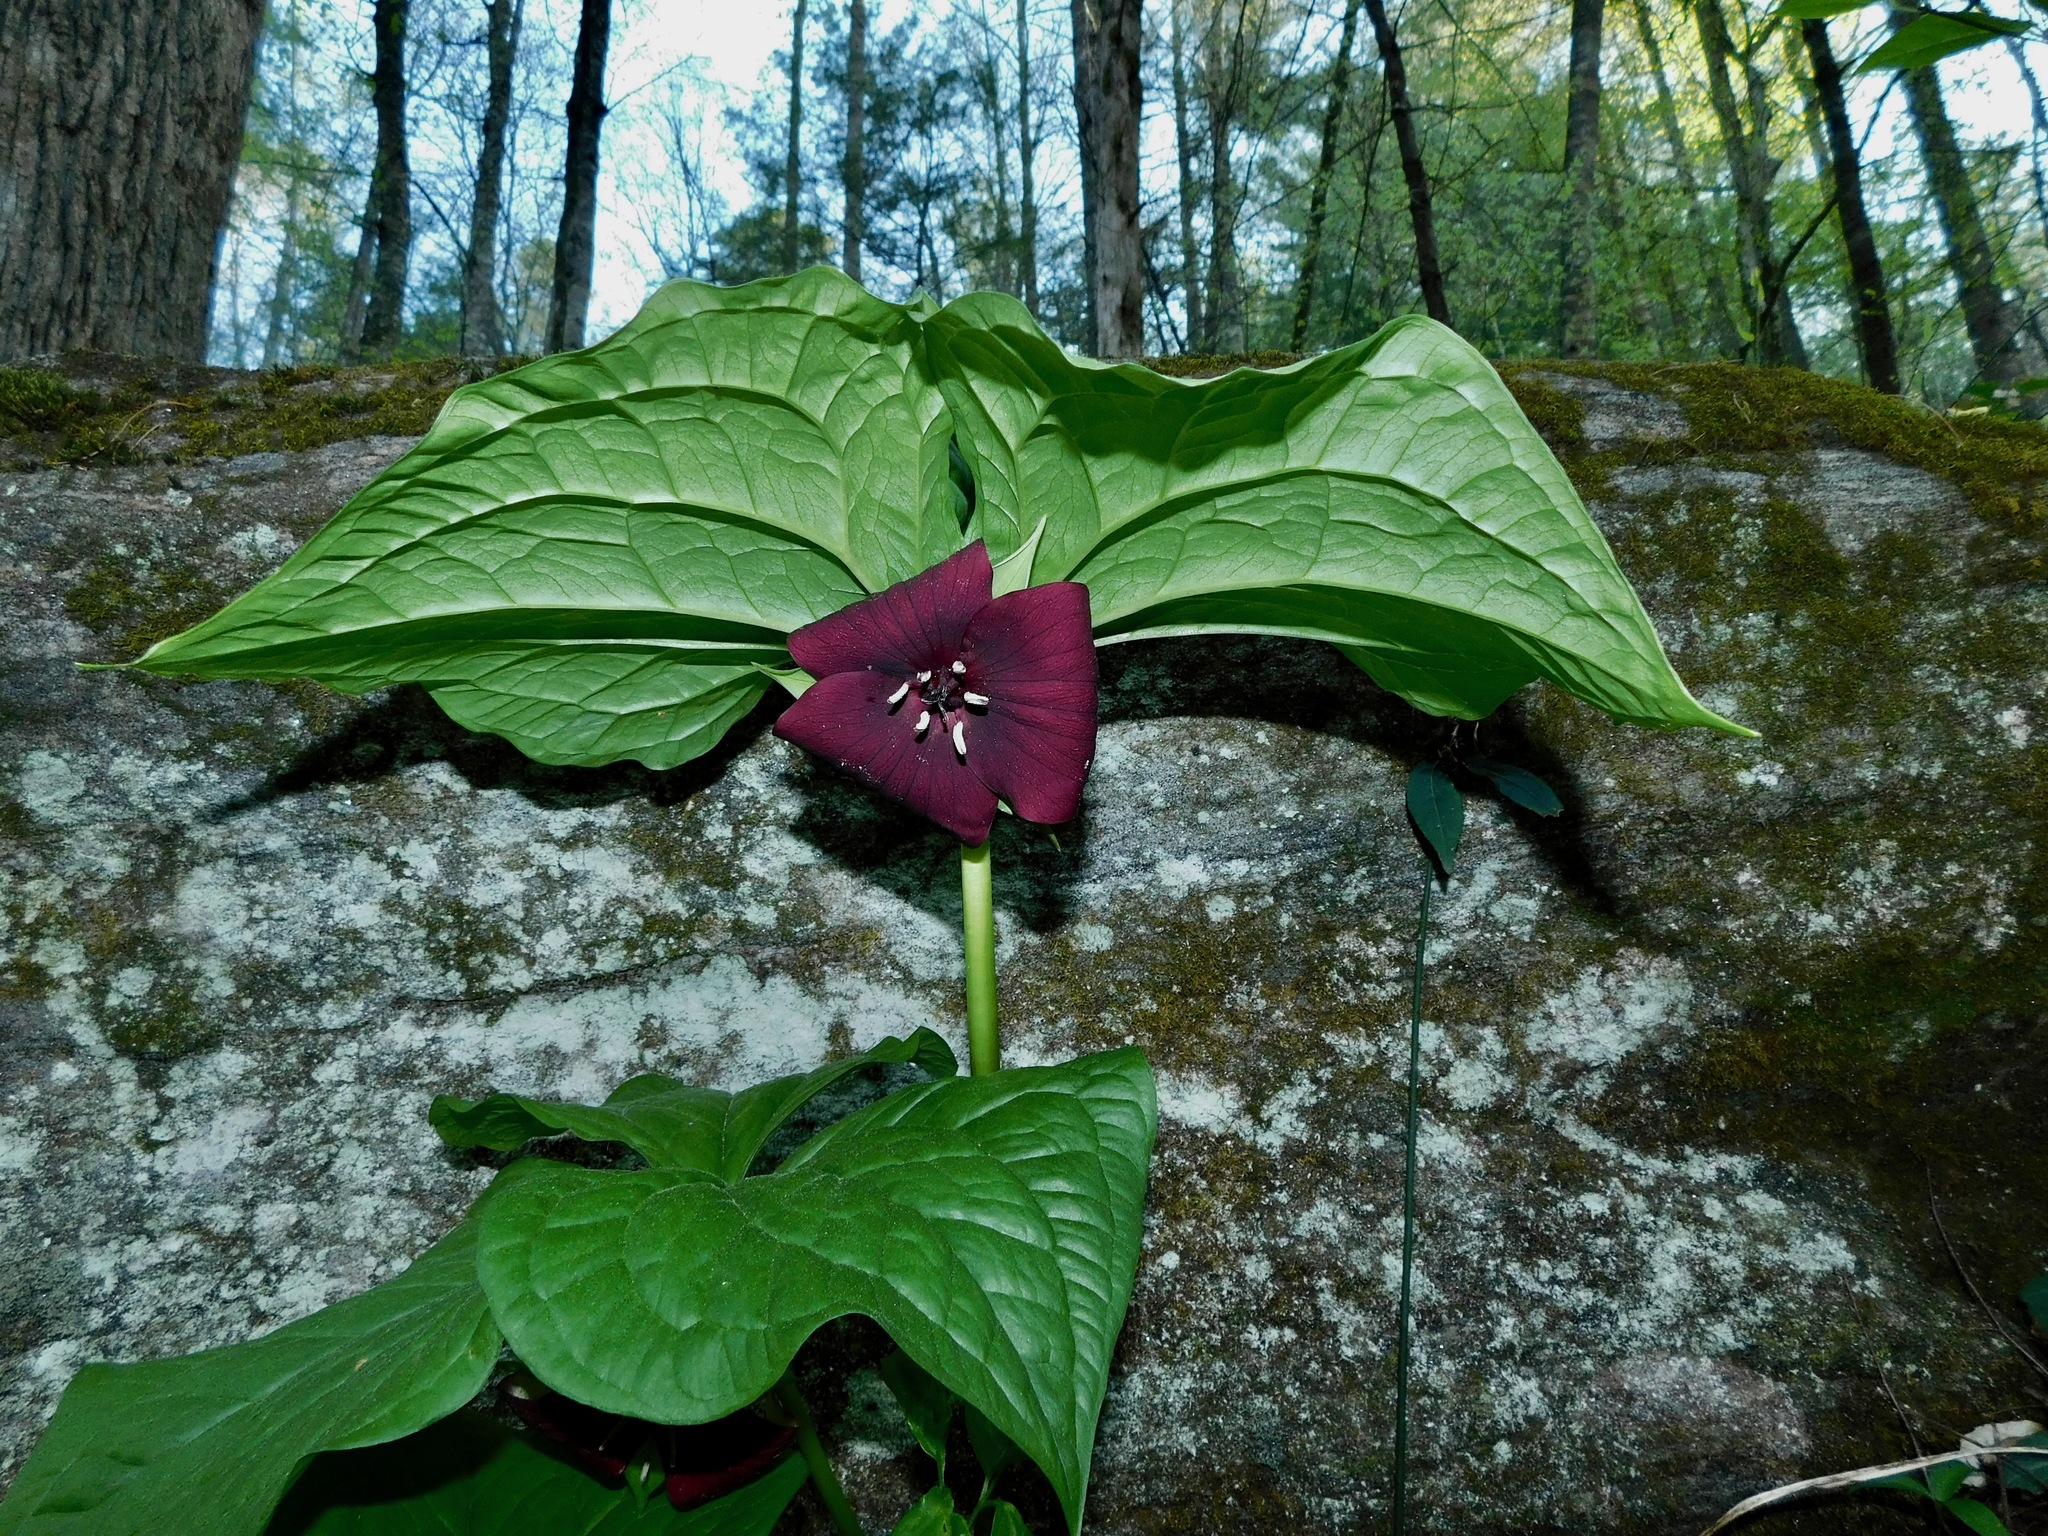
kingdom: Plantae
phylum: Tracheophyta
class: Liliopsida
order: Liliales
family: Melanthiaceae
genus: Trillium
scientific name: Trillium vaseyi
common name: Sweet trillium
